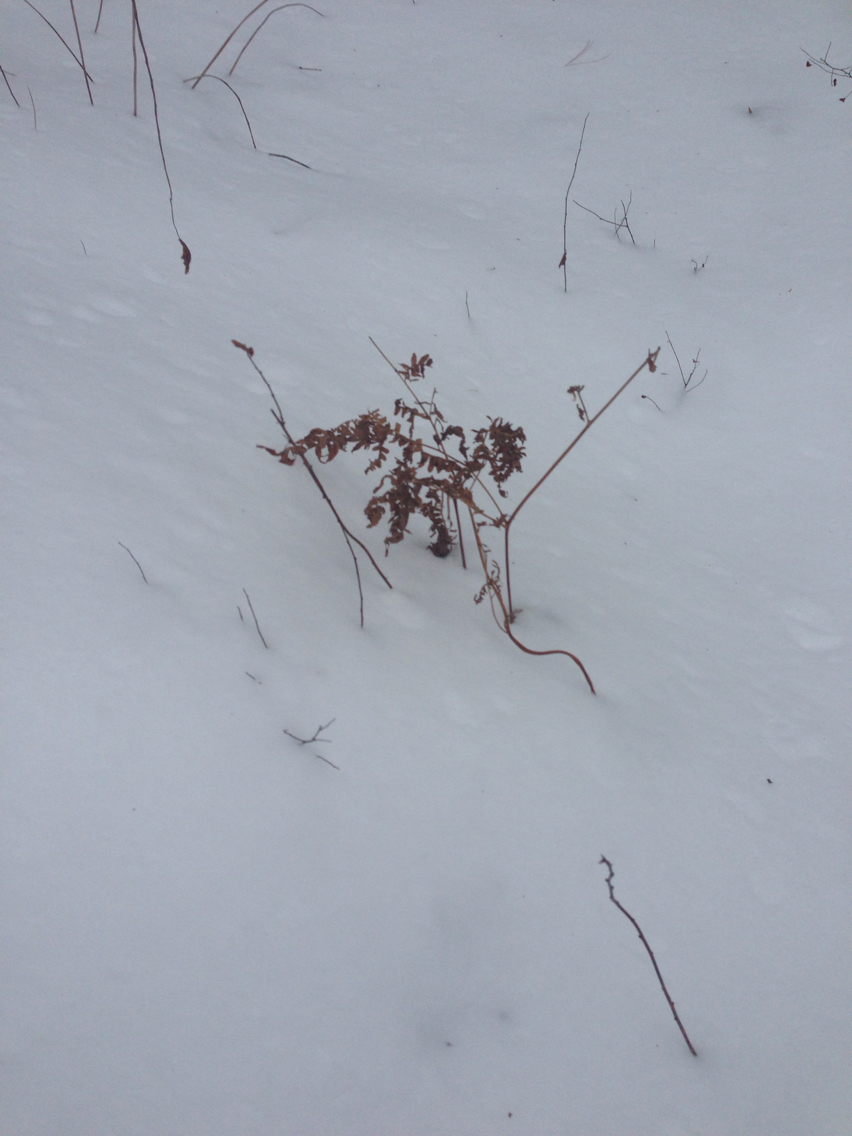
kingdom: Plantae
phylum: Tracheophyta
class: Polypodiopsida
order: Polypodiales
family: Dennstaedtiaceae
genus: Pteridium
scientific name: Pteridium aquilinum
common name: Bracken
